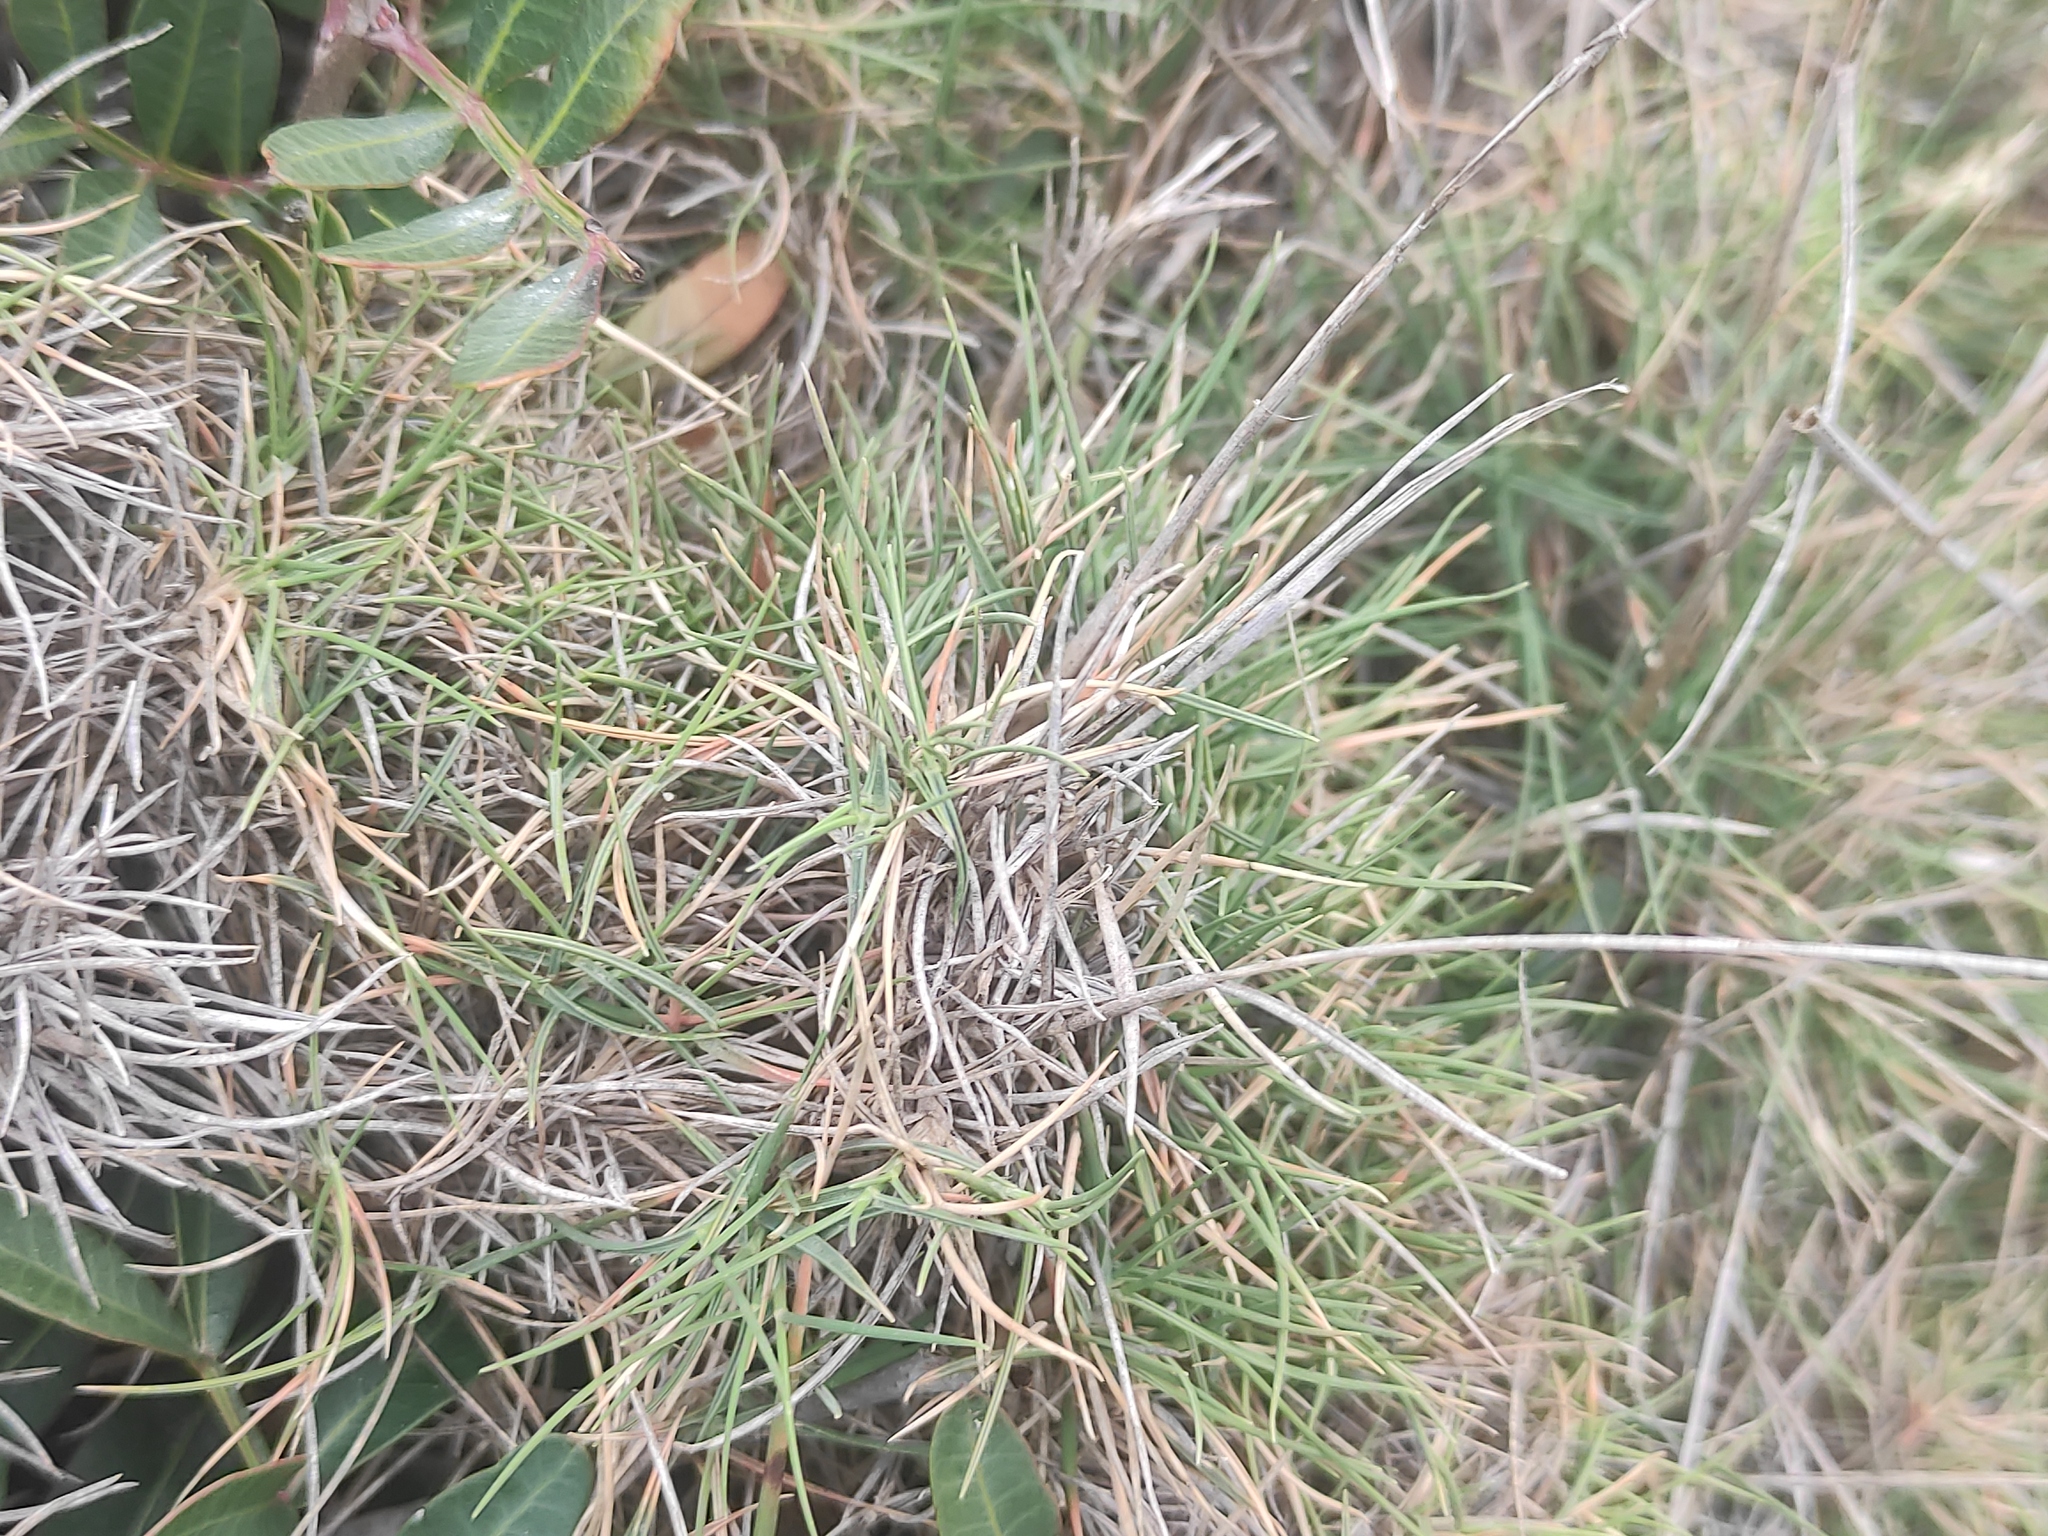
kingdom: Plantae
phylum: Tracheophyta
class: Liliopsida
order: Poales
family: Poaceae
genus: Brachypodium
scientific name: Brachypodium retusum
